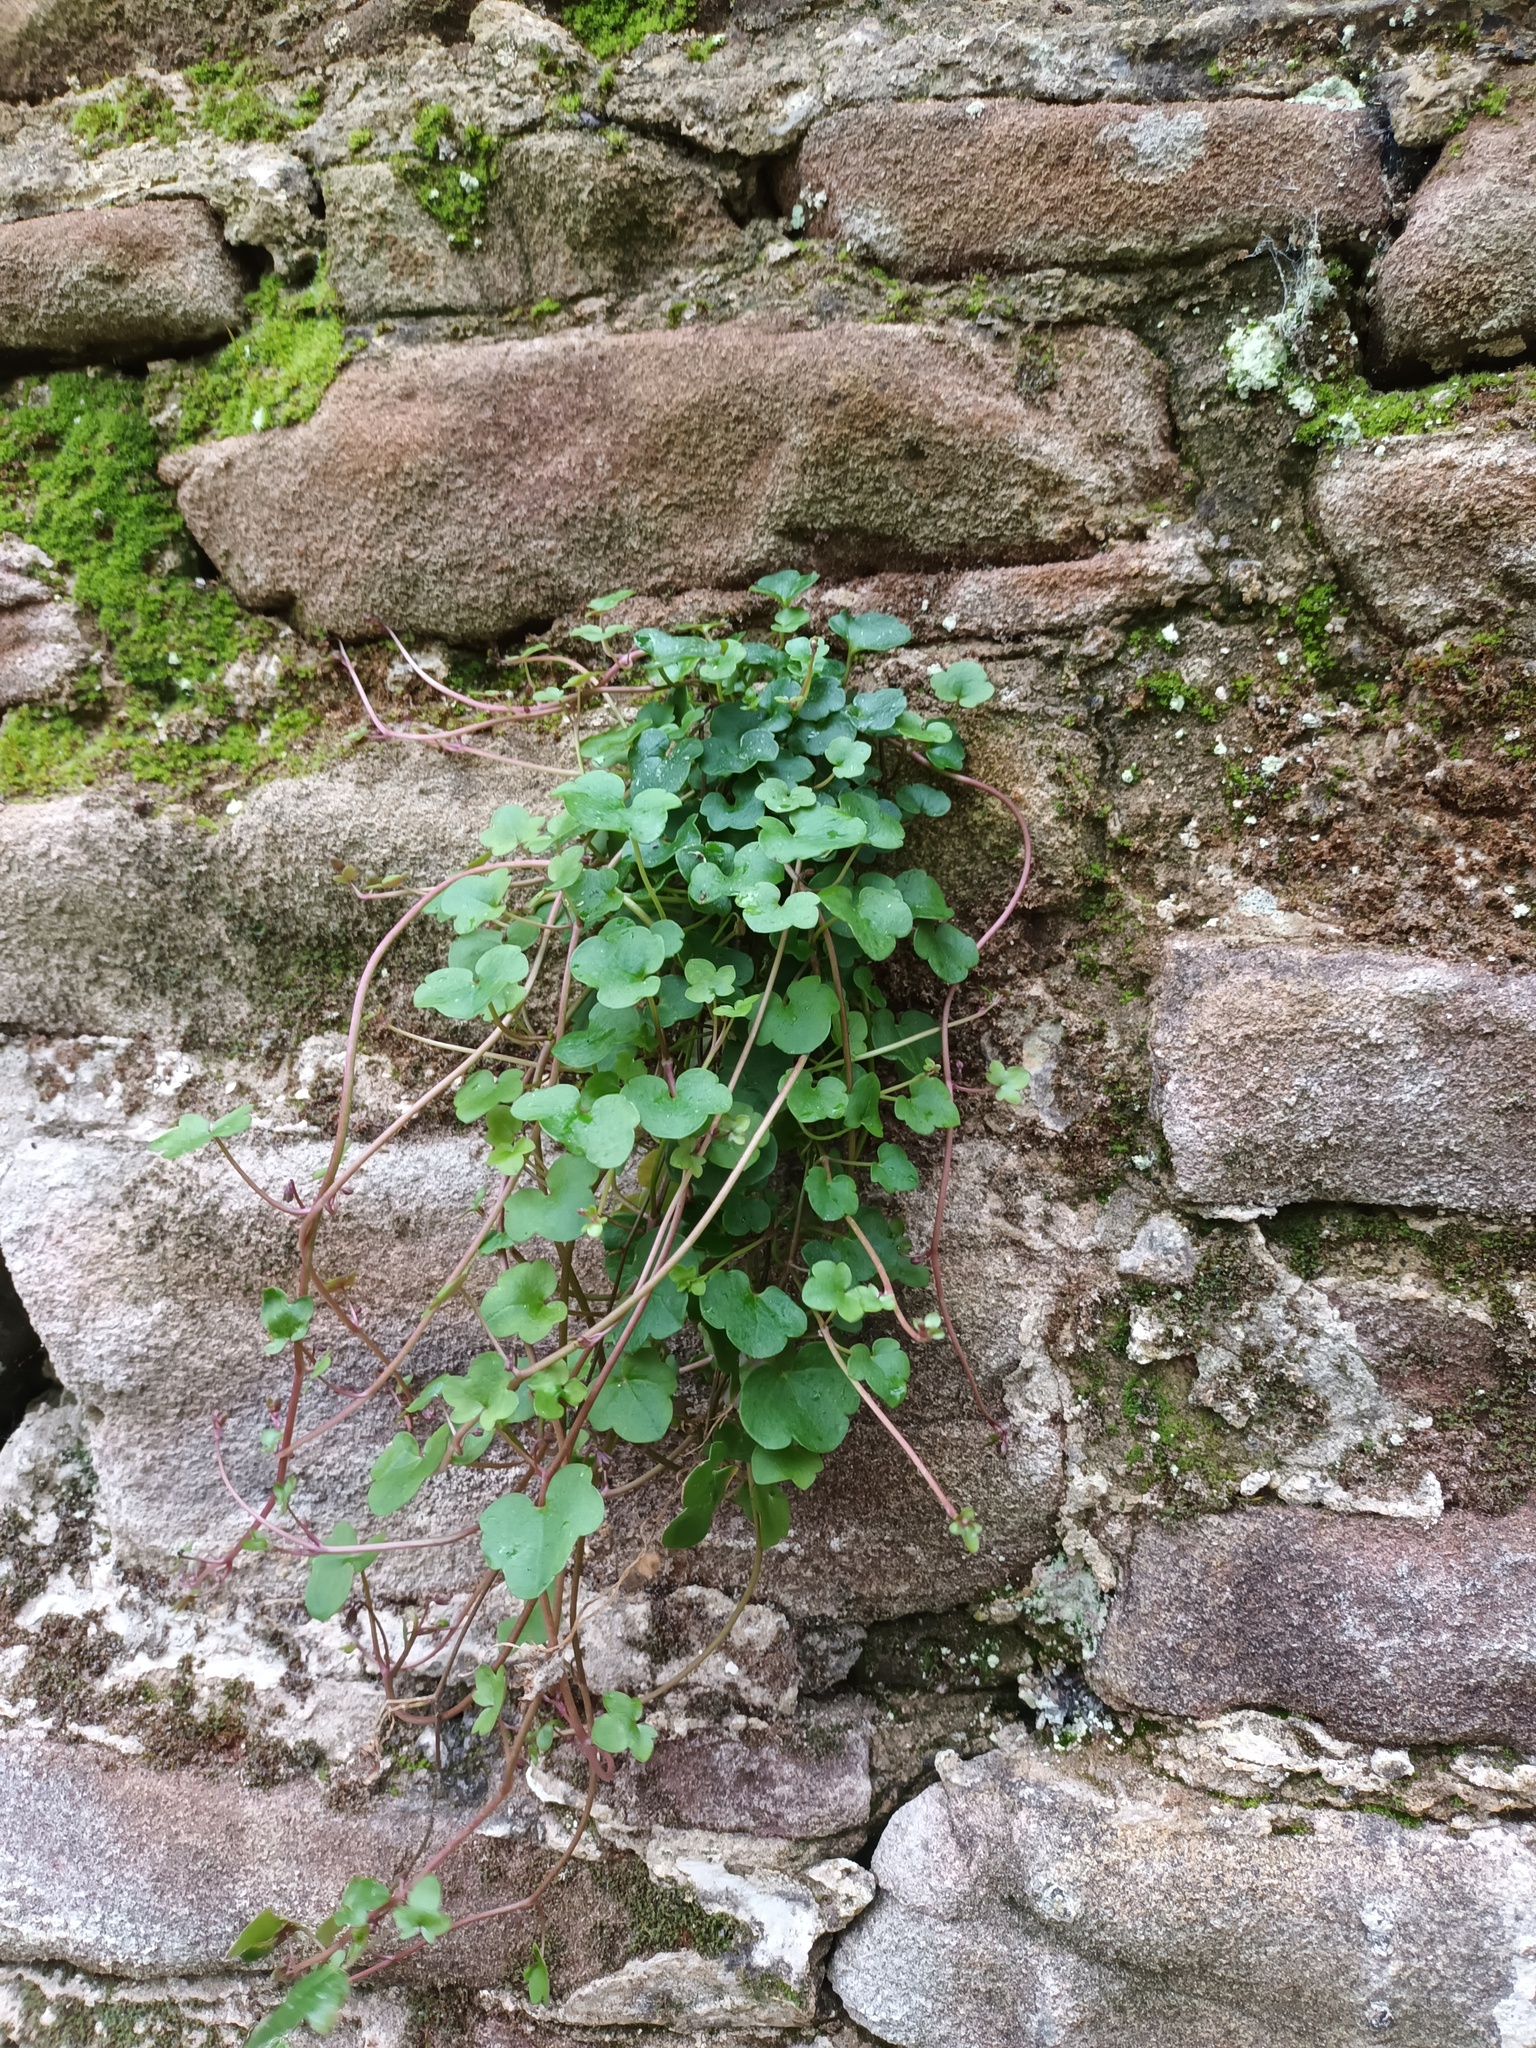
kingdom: Plantae
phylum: Tracheophyta
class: Magnoliopsida
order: Lamiales
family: Plantaginaceae
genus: Cymbalaria
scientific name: Cymbalaria muralis
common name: Ivy-leaved toadflax
